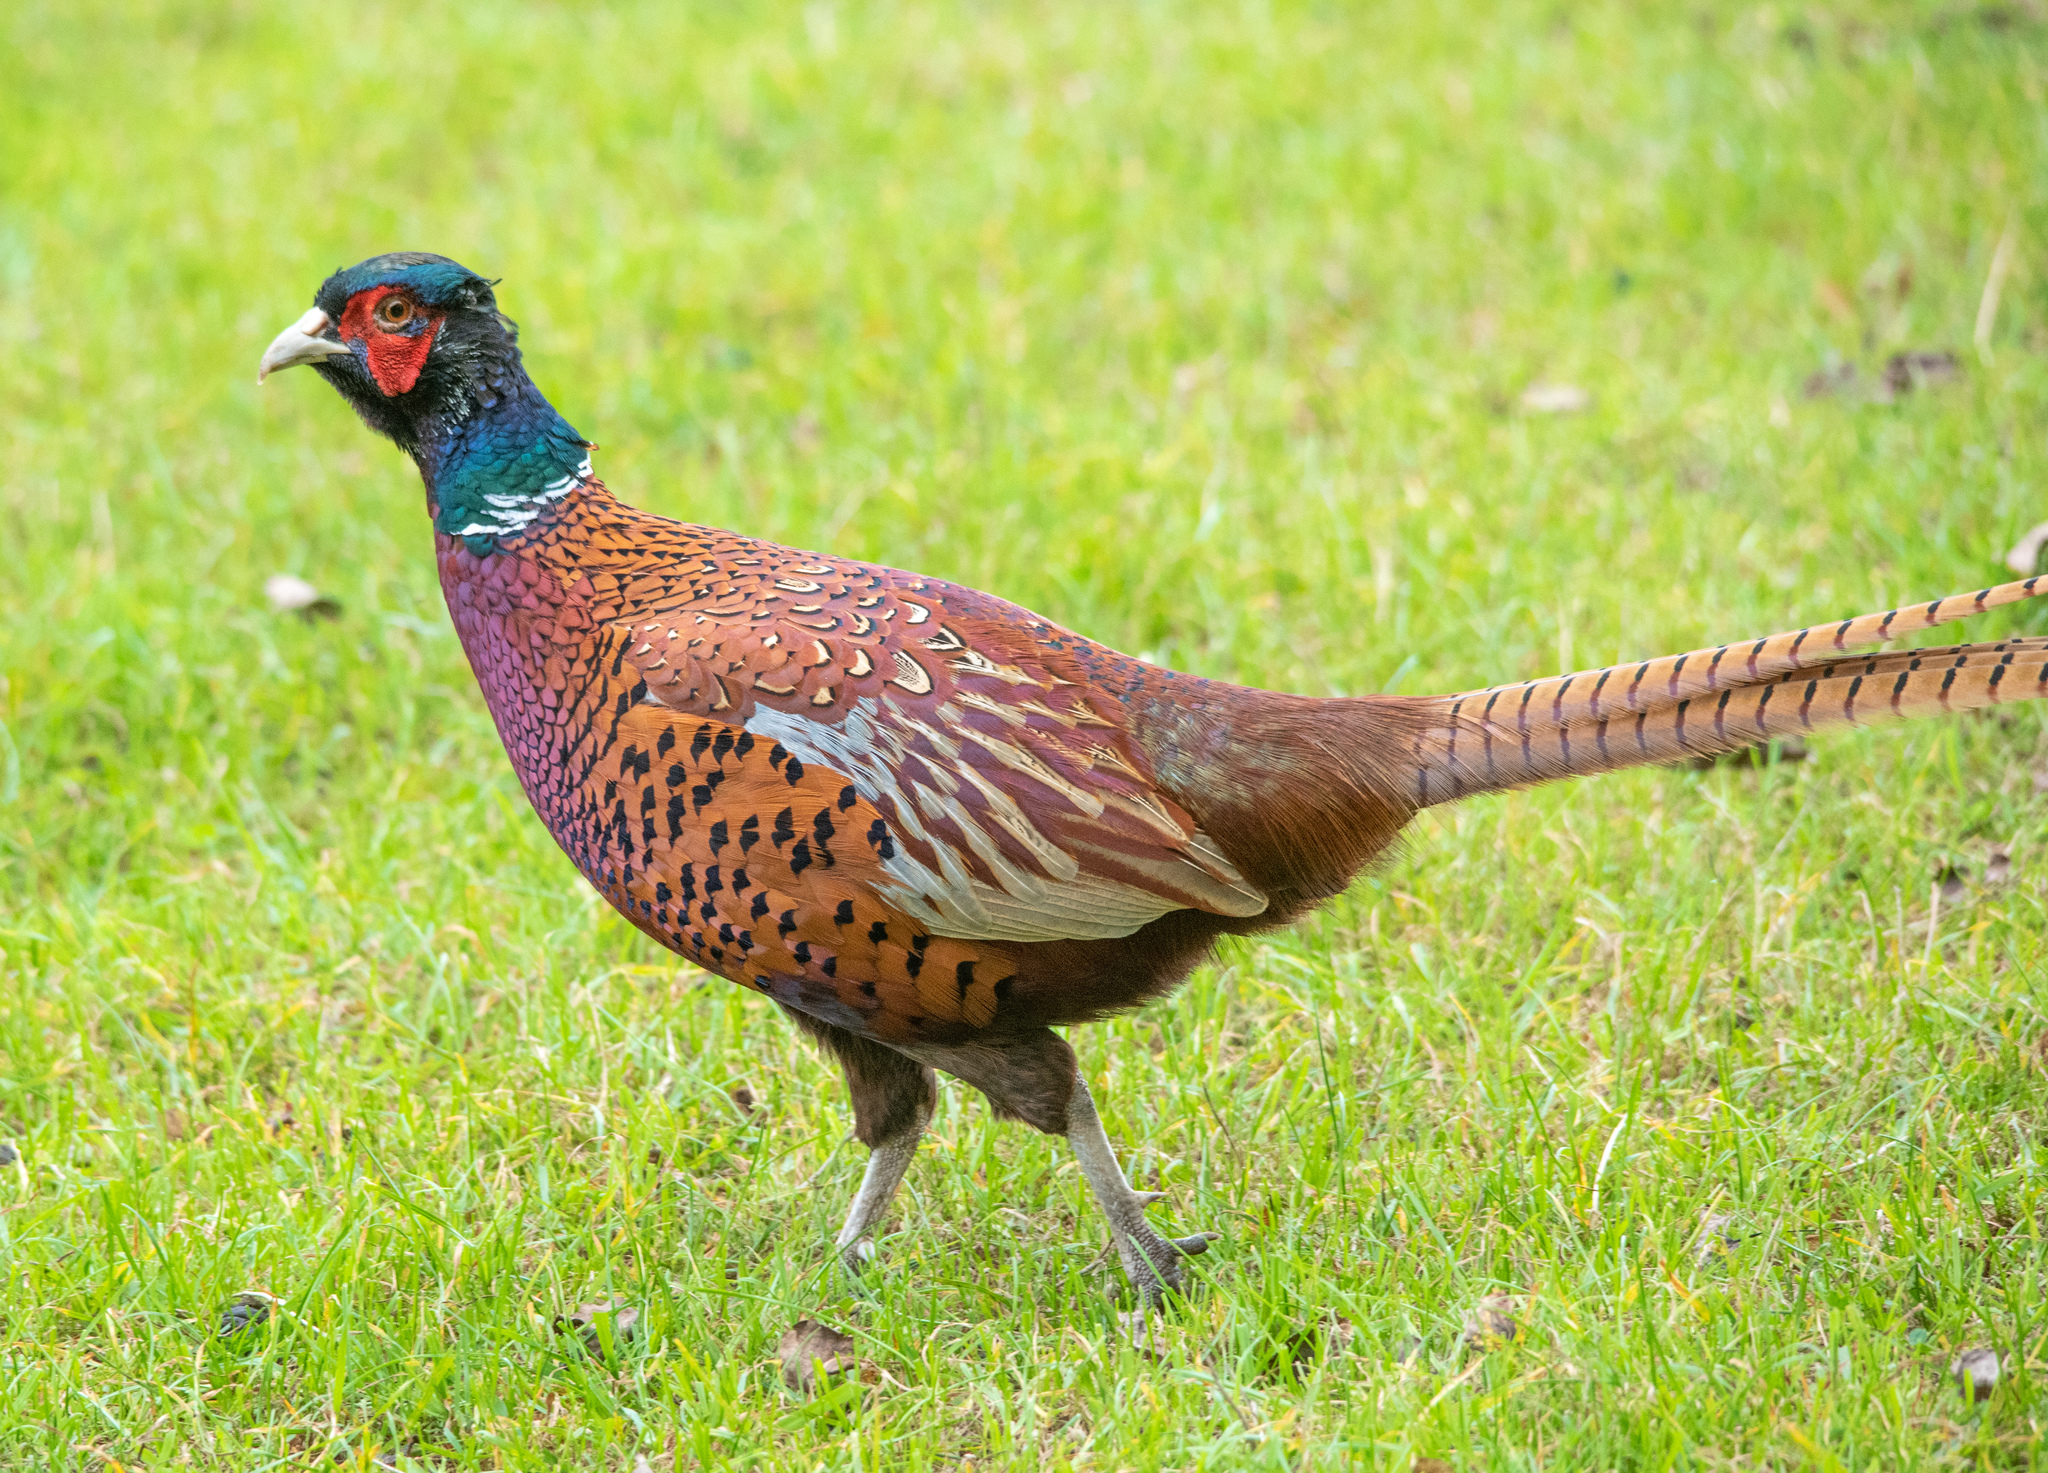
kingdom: Animalia
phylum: Chordata
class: Aves
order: Galliformes
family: Phasianidae
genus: Phasianus
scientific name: Phasianus colchicus
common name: Common pheasant
